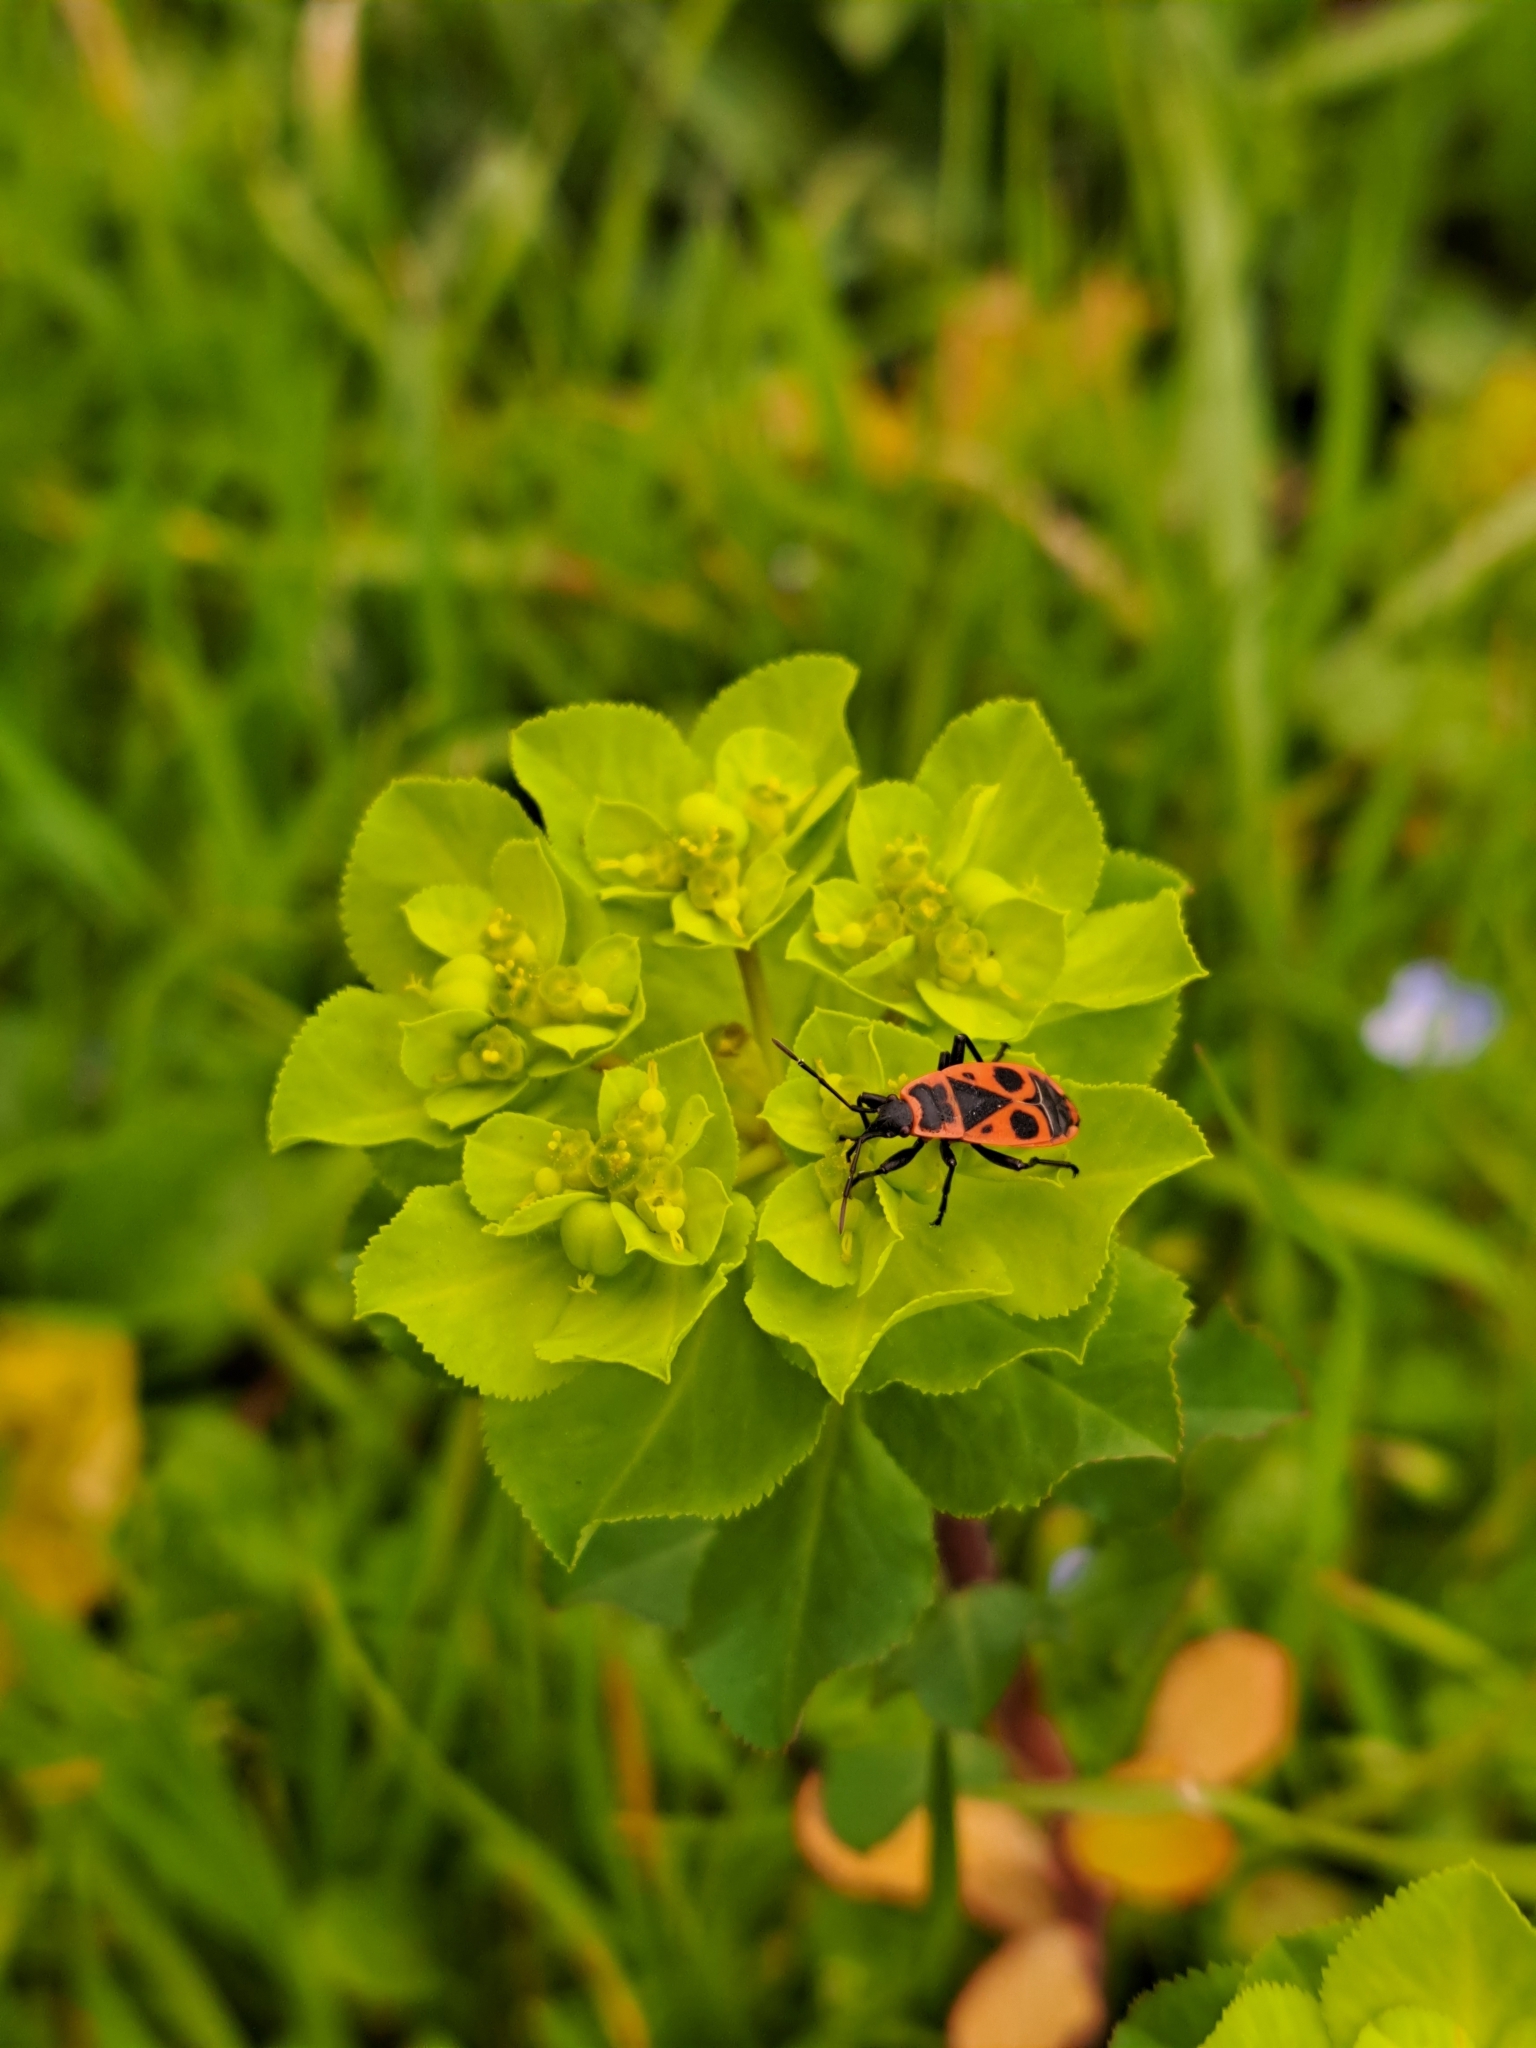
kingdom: Animalia
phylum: Arthropoda
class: Insecta
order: Hemiptera
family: Pyrrhocoridae
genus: Pyrrhocoris
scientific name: Pyrrhocoris apterus
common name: Firebug
